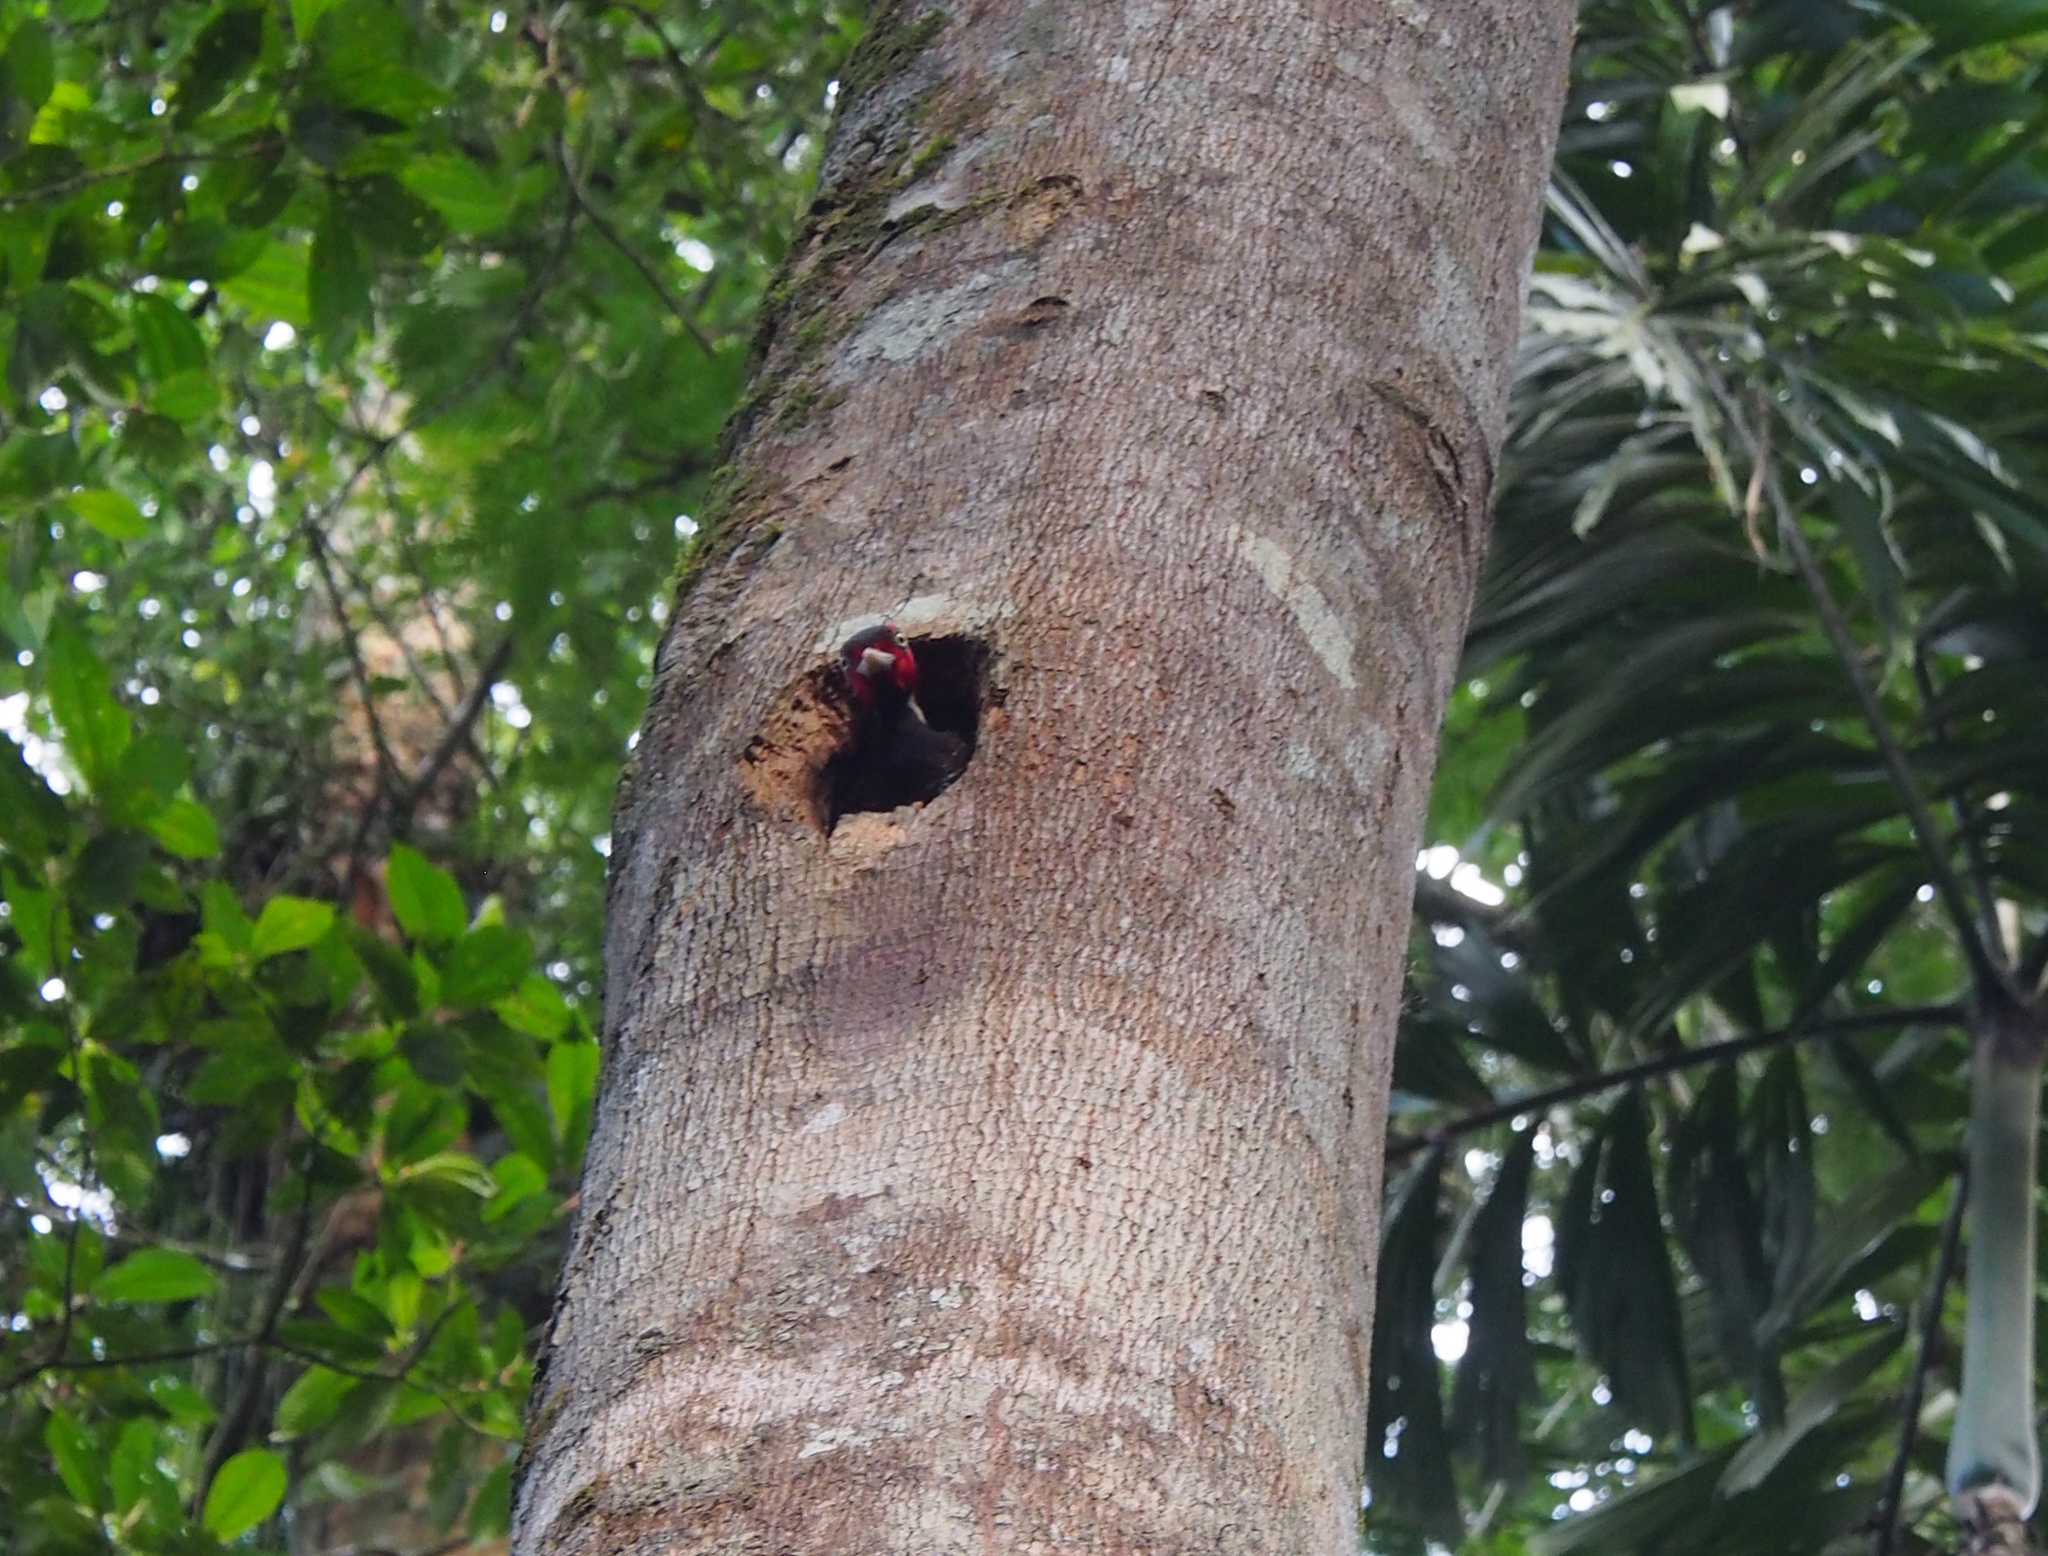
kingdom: Animalia
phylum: Chordata
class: Aves
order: Piciformes
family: Picidae
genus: Campephilus
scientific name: Campephilus guatemalensis
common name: Pale-billed woodpecker
